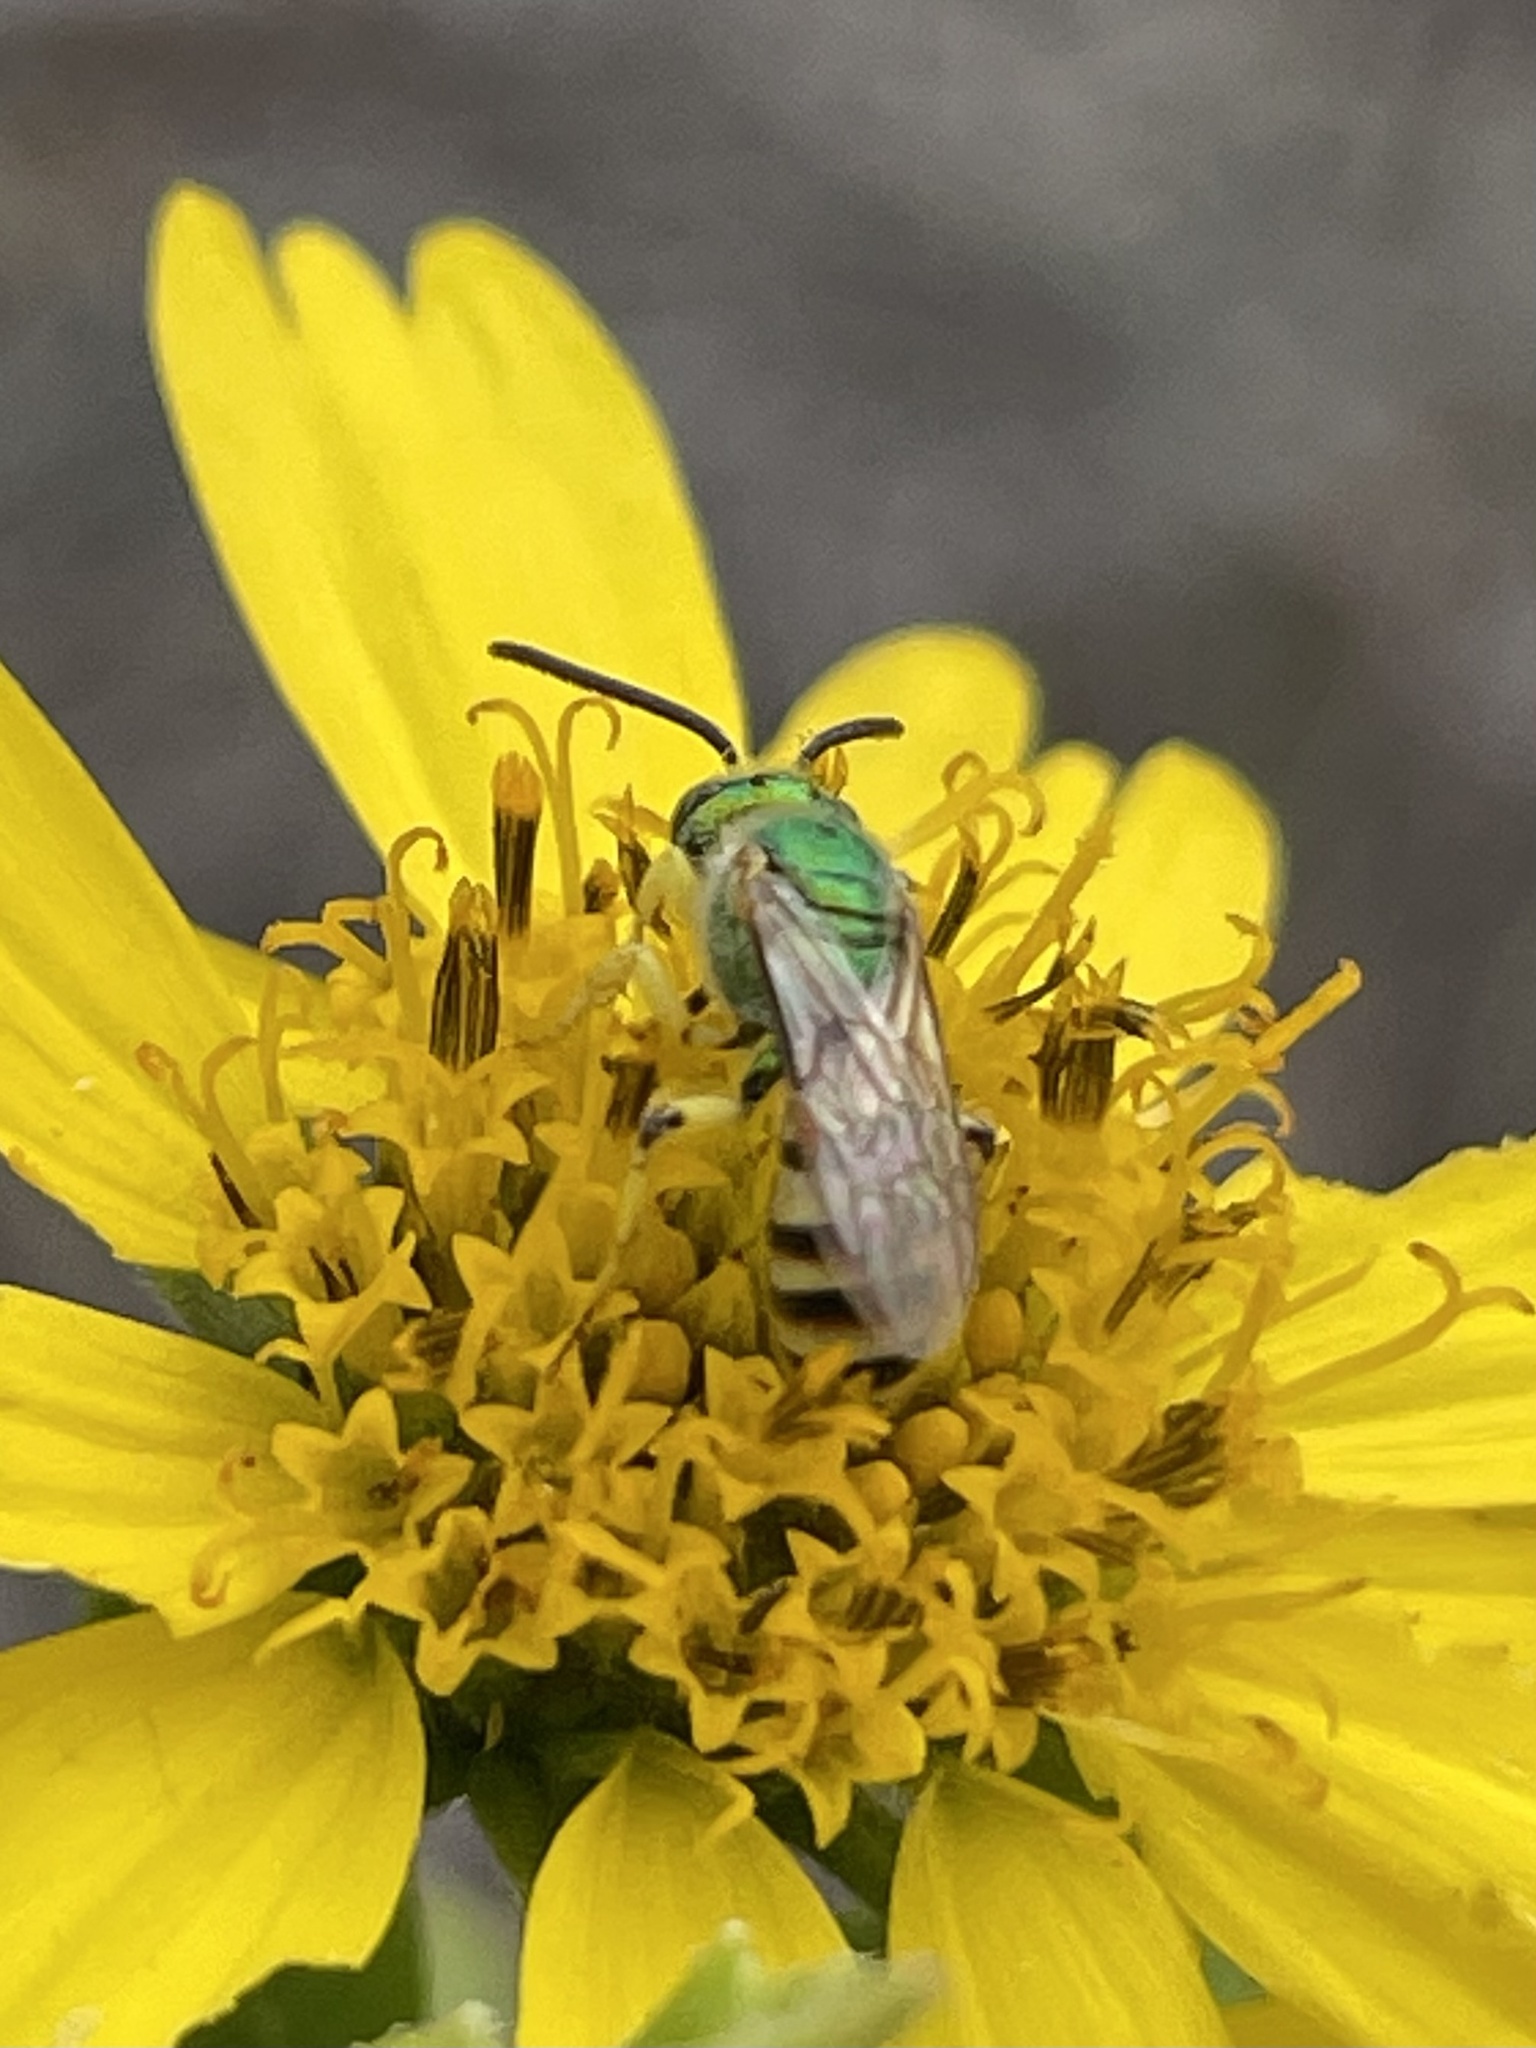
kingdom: Animalia
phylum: Arthropoda
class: Insecta
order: Hymenoptera
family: Halictidae
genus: Agapostemon
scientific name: Agapostemon melliventris
